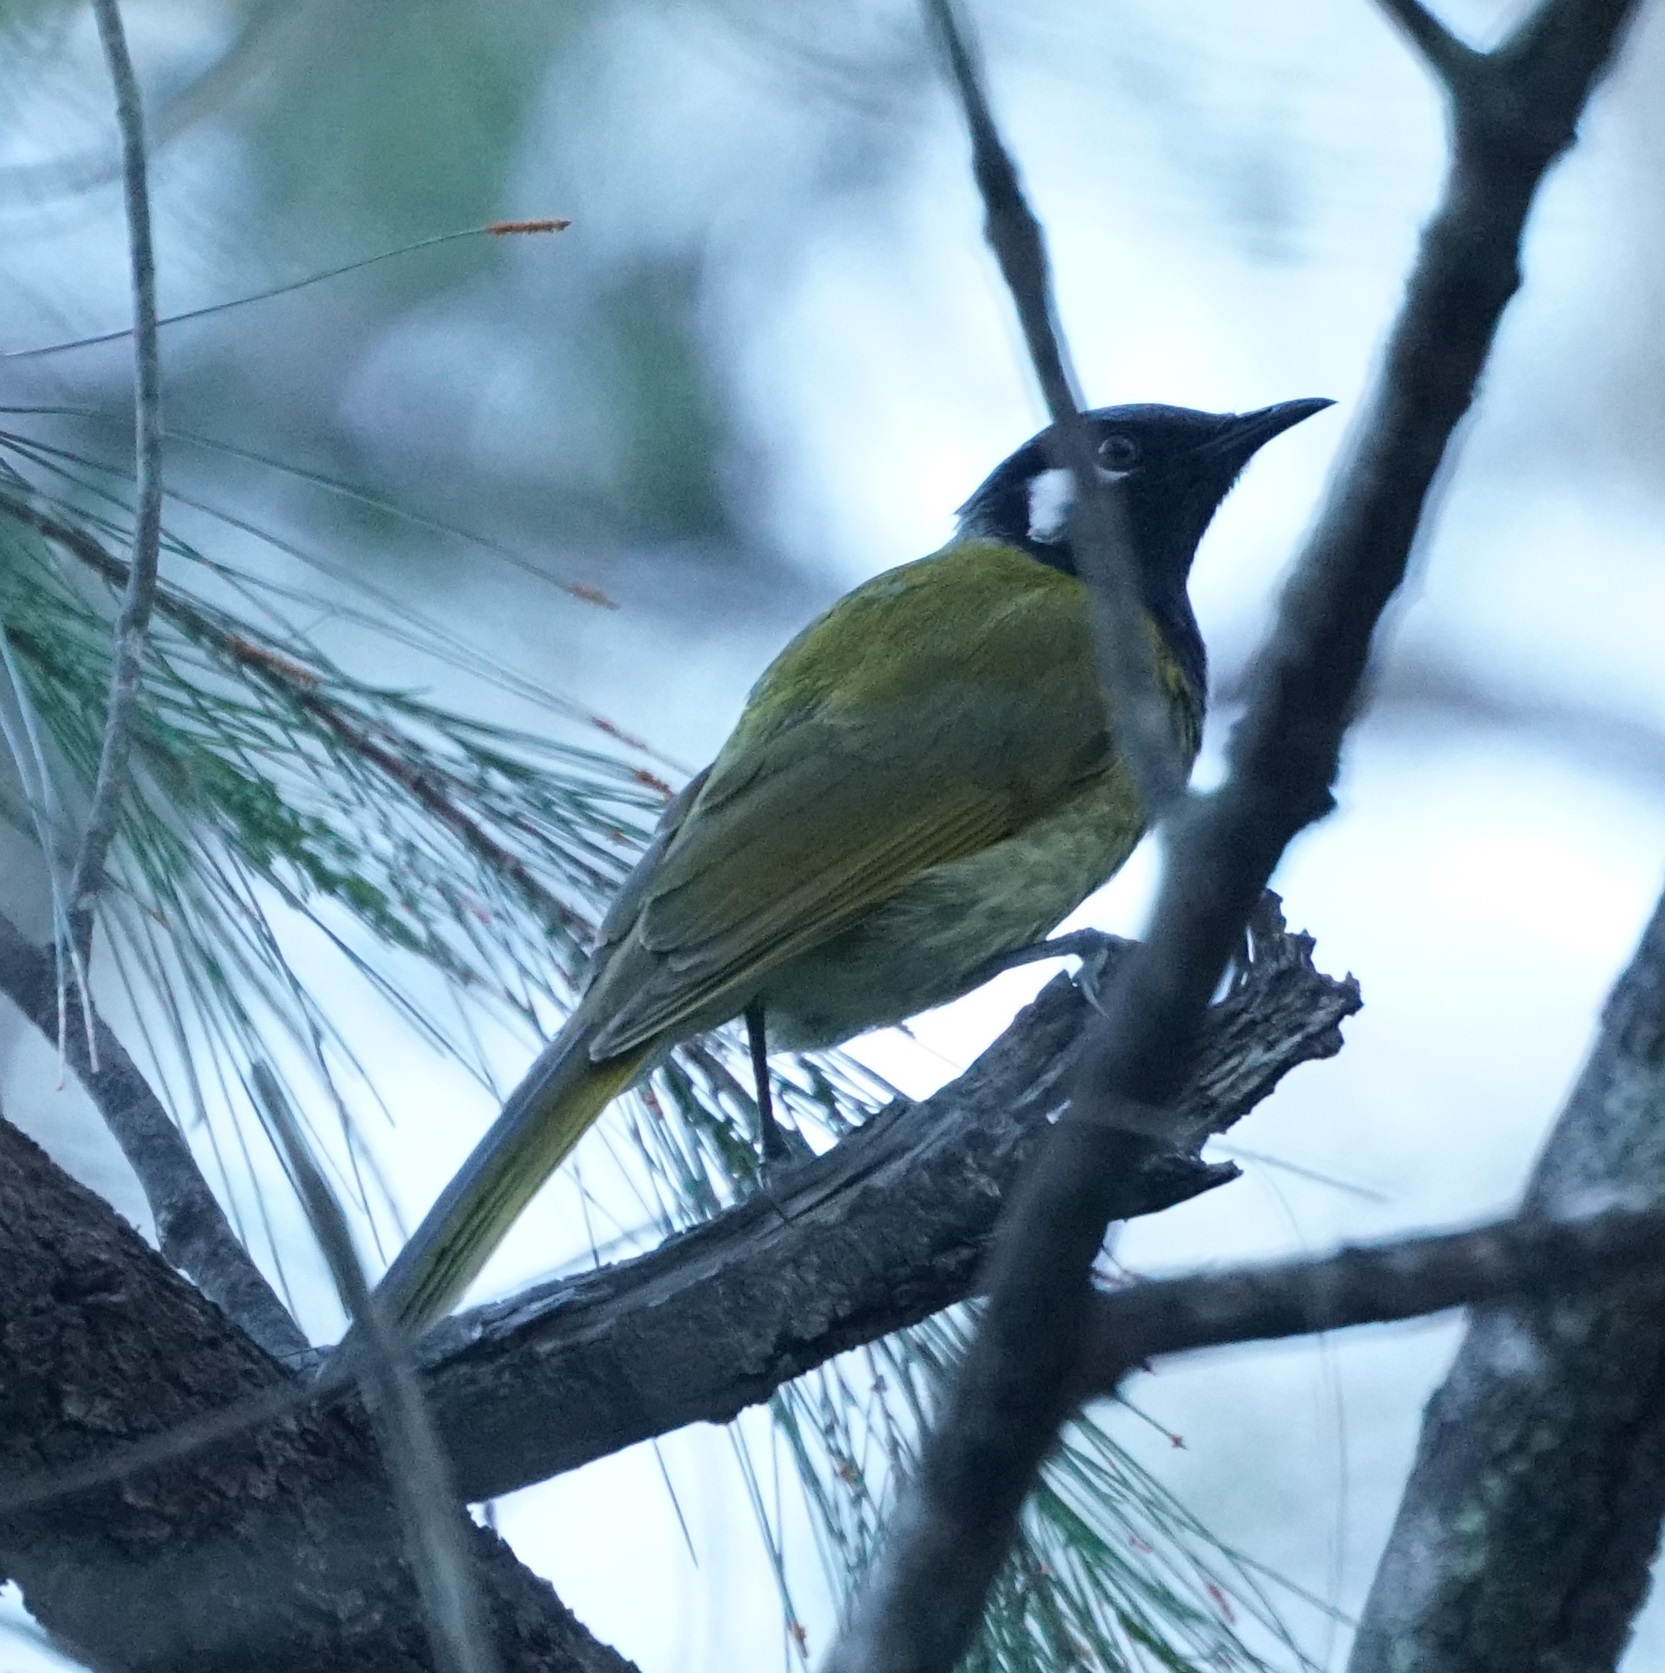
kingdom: Animalia
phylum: Chordata
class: Aves
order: Passeriformes
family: Meliphagidae
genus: Nesoptilotis
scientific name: Nesoptilotis leucotis
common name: White-eared honeyeater
